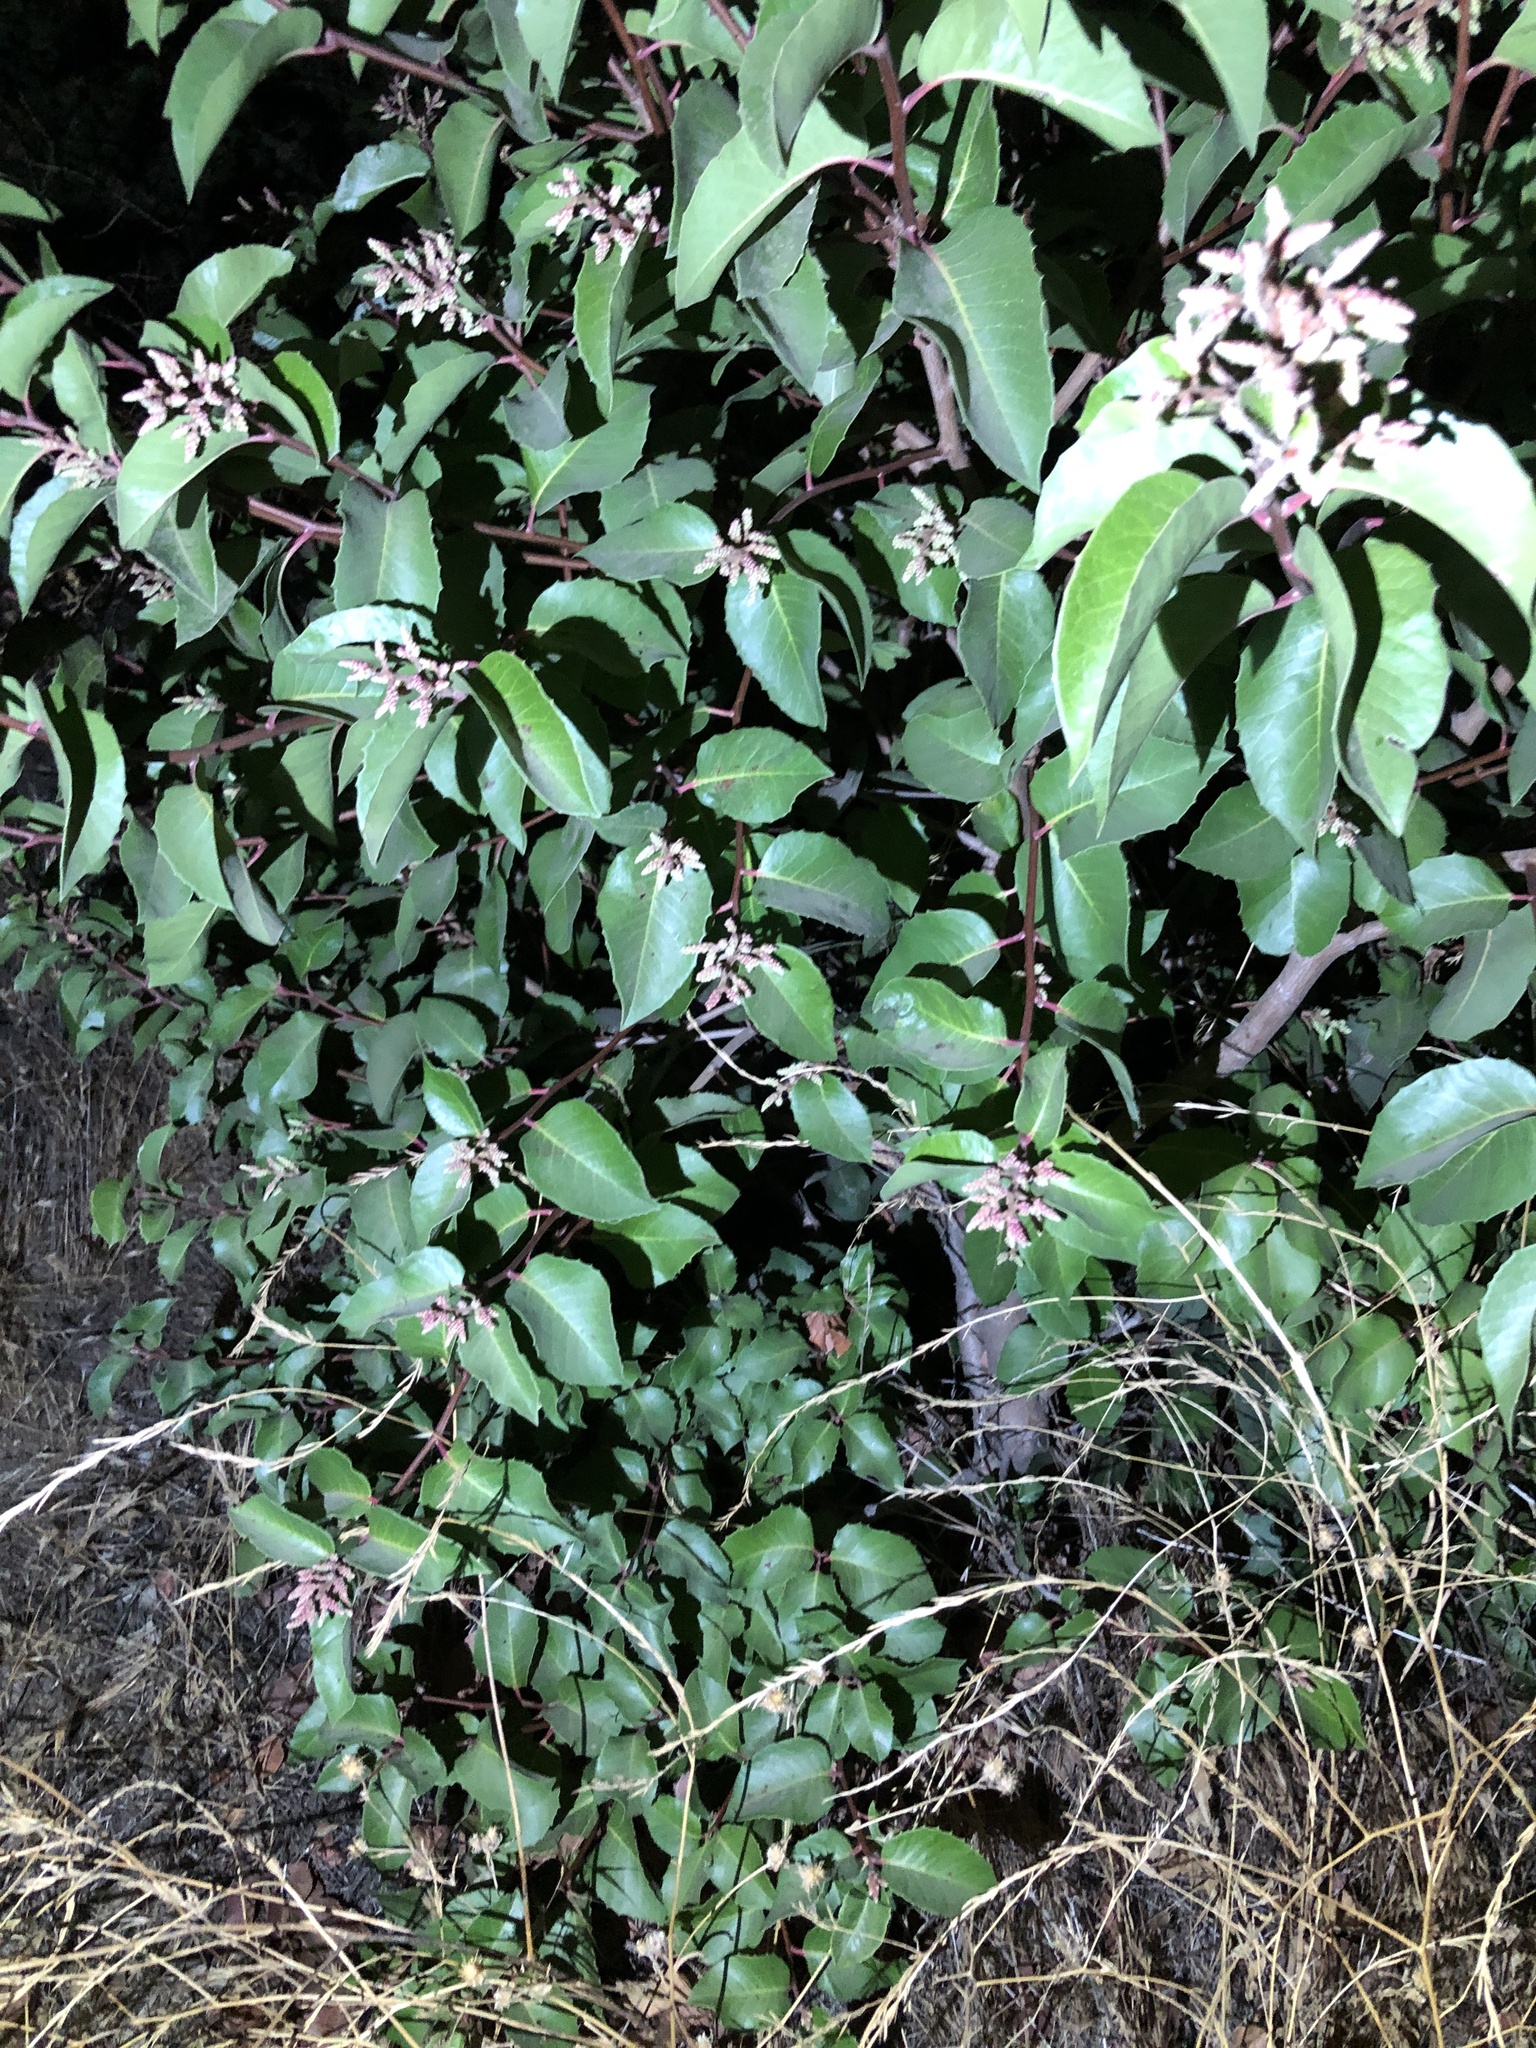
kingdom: Plantae
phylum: Tracheophyta
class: Magnoliopsida
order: Sapindales
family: Anacardiaceae
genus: Rhus
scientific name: Rhus ovata
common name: Sugar sumac
